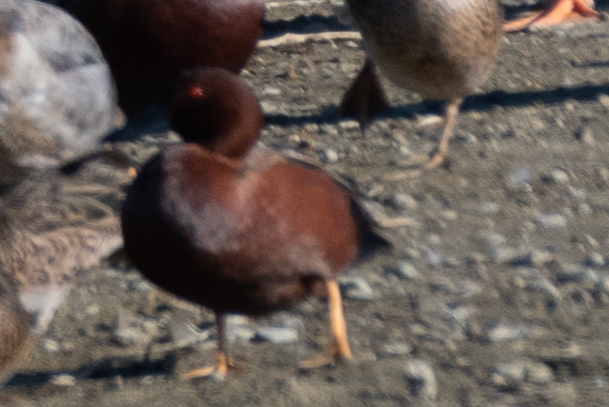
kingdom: Animalia
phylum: Chordata
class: Aves
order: Anseriformes
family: Anatidae
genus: Spatula
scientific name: Spatula cyanoptera
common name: Cinnamon teal
